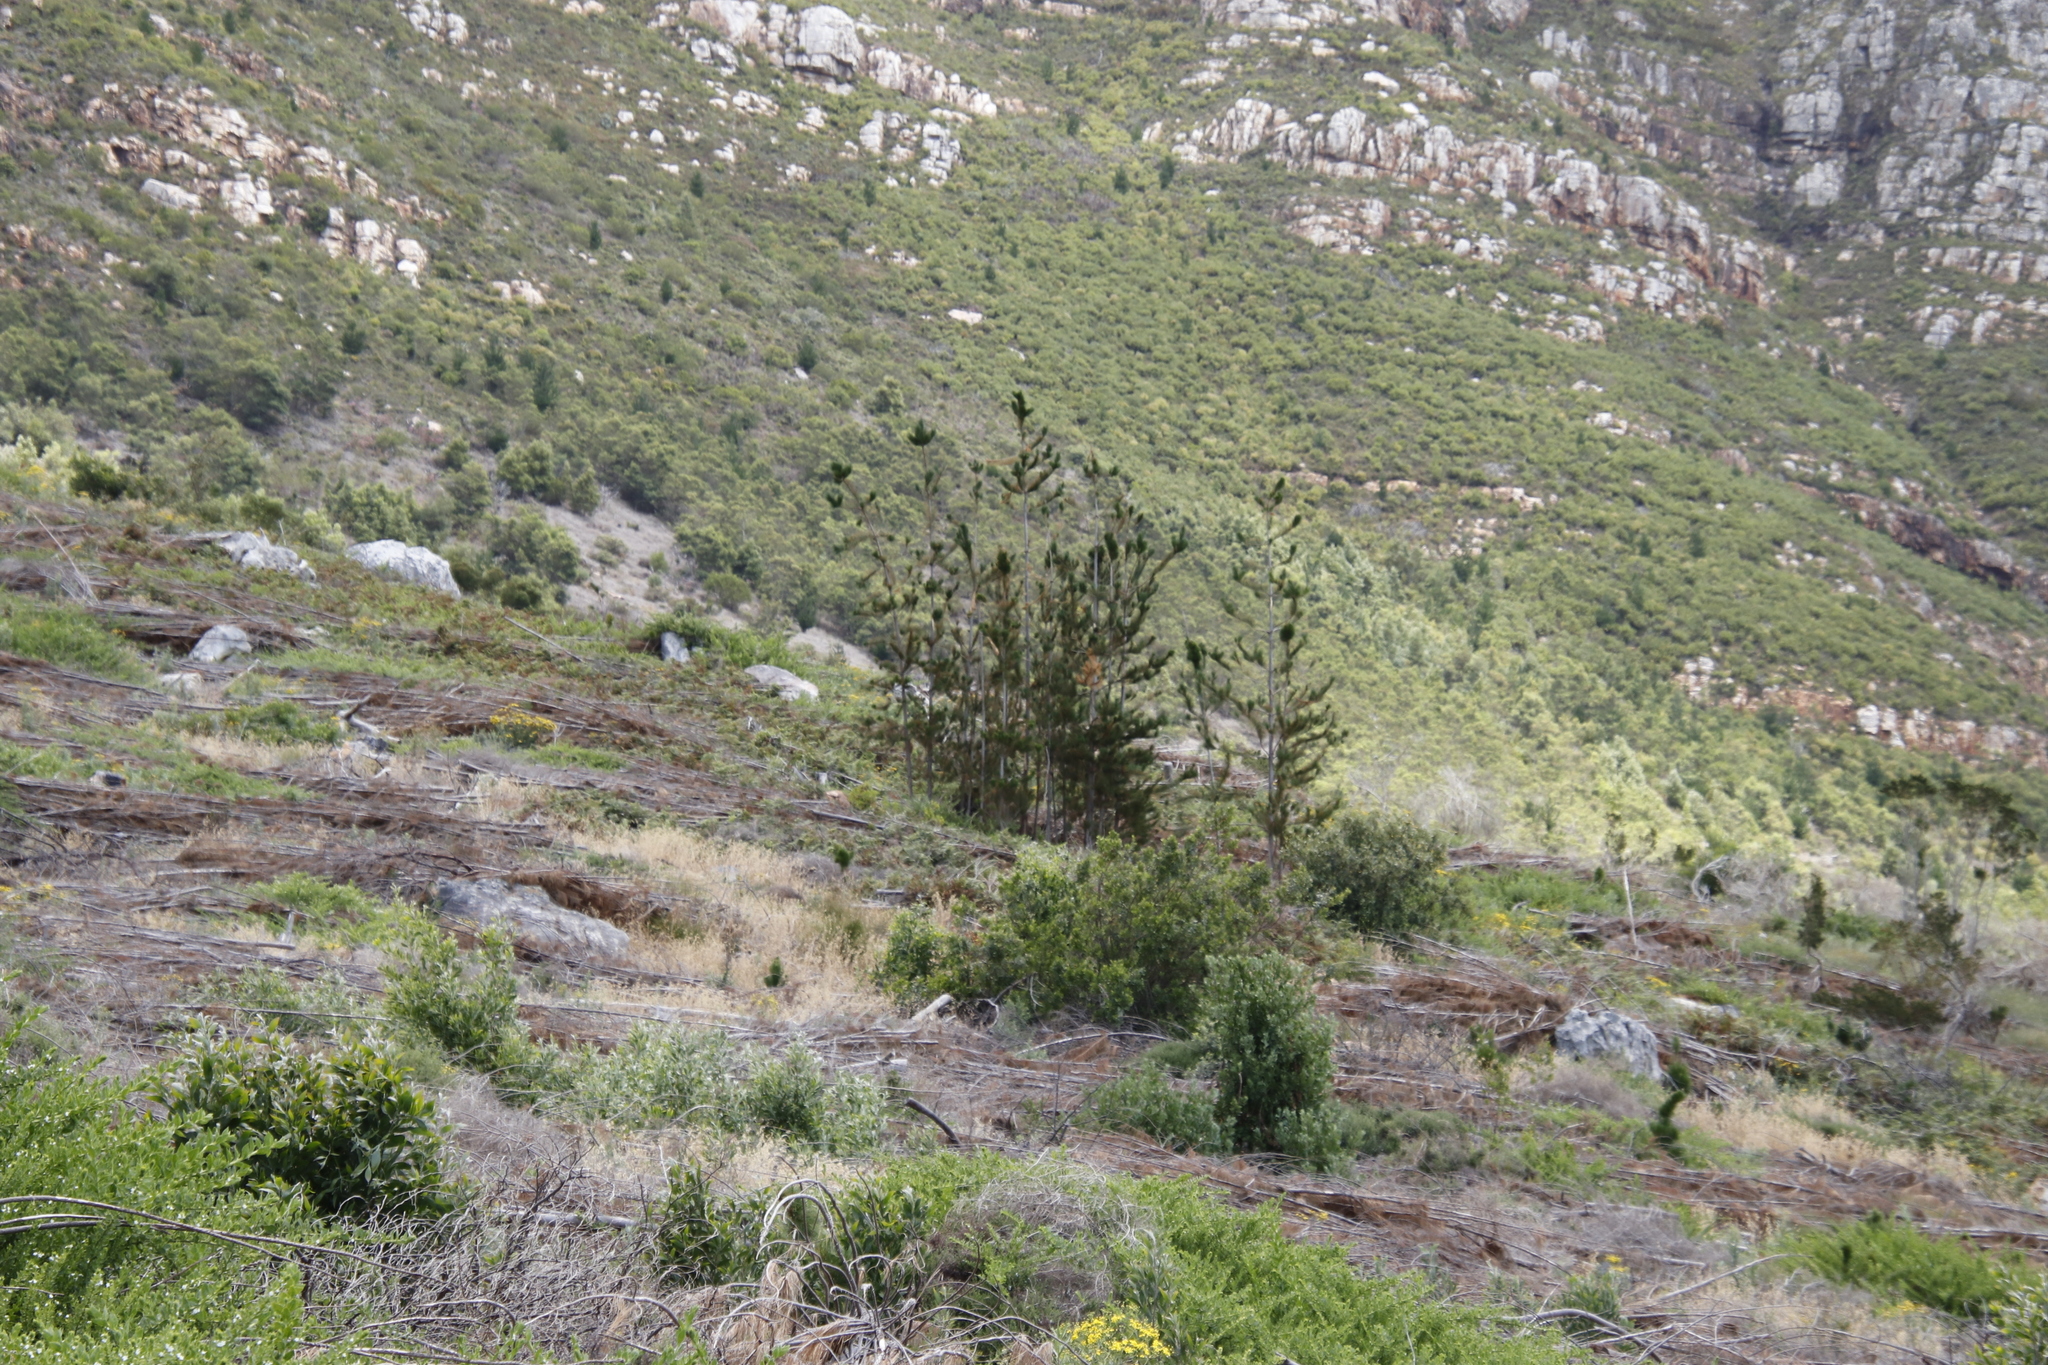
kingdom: Plantae
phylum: Tracheophyta
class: Pinopsida
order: Pinales
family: Pinaceae
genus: Pinus
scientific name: Pinus radiata
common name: Monterey pine
